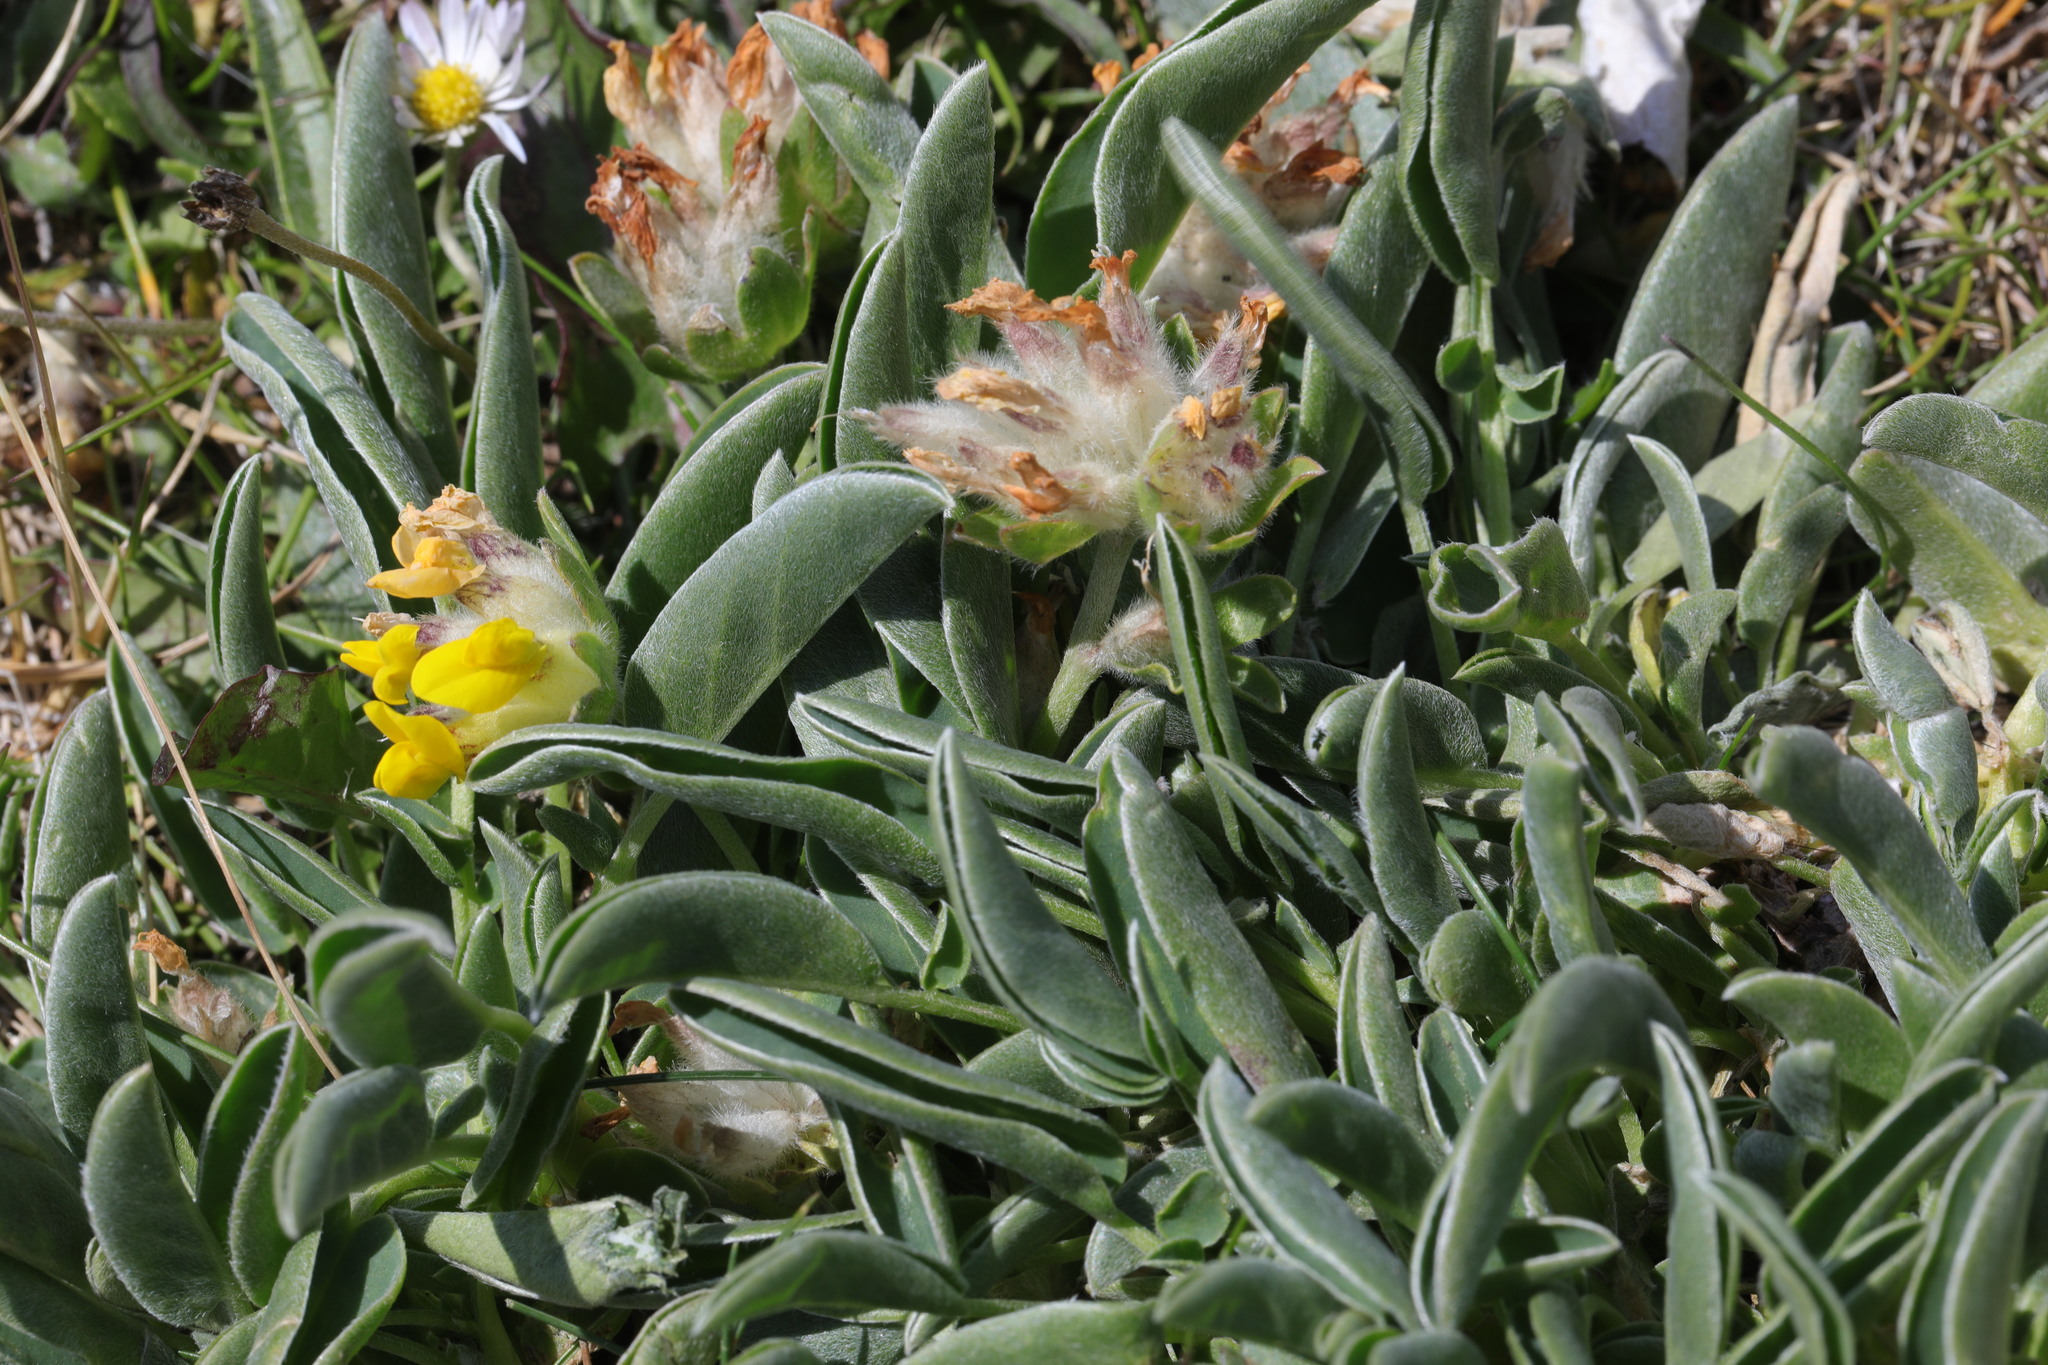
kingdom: Plantae
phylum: Tracheophyta
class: Magnoliopsida
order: Fabales
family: Fabaceae
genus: Anthyllis
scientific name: Anthyllis vulneraria
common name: Kidney vetch
